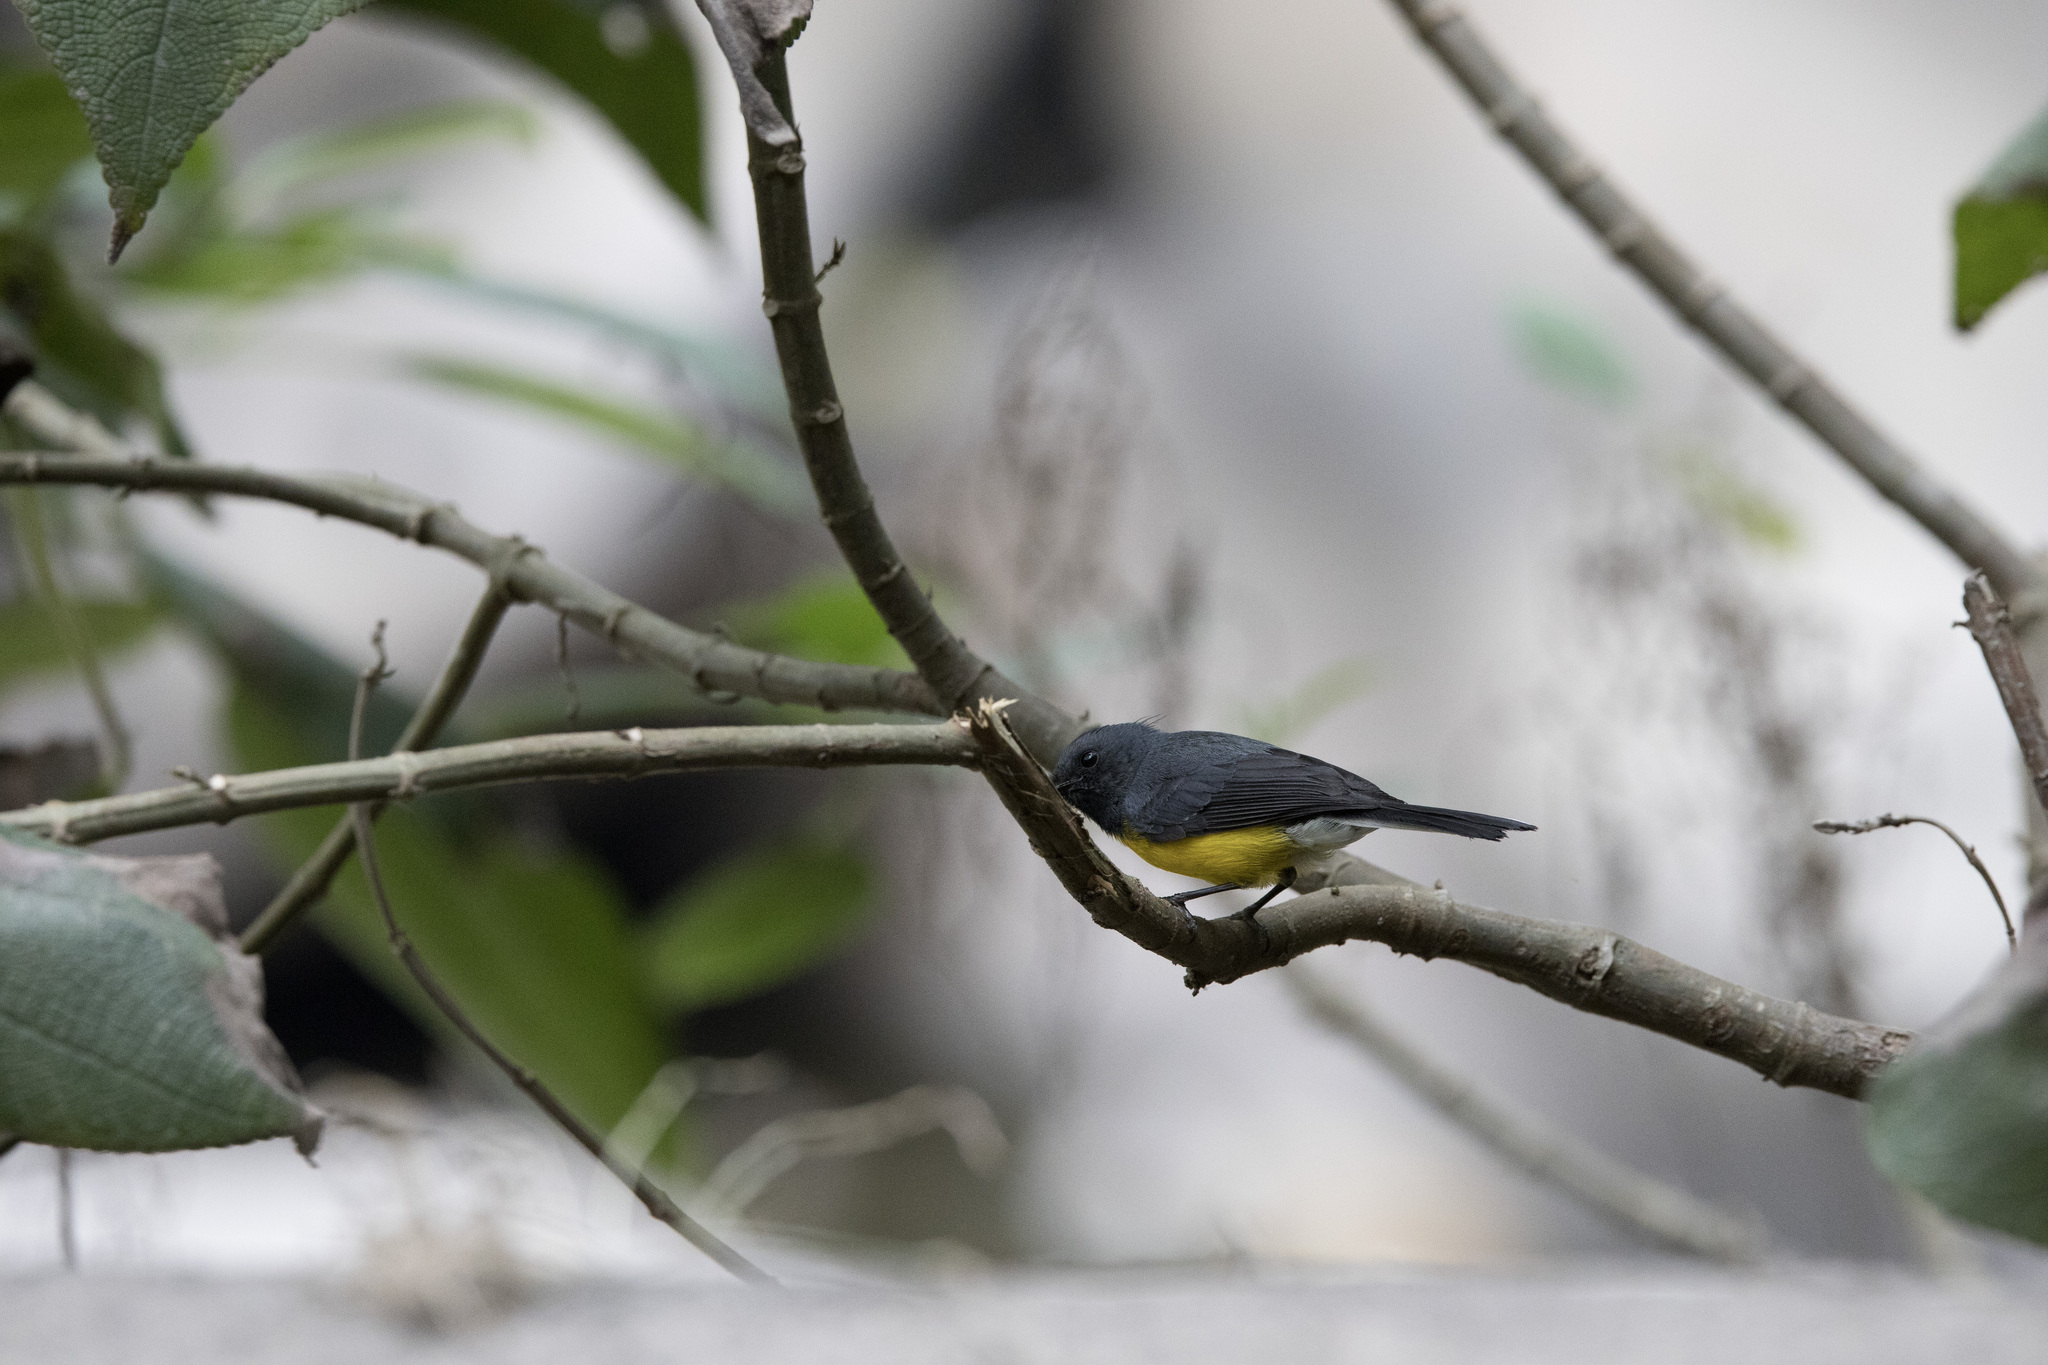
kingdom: Animalia
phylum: Chordata
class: Aves
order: Passeriformes
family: Parulidae
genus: Myioborus
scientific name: Myioborus miniatus
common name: Slate-throated redstart
